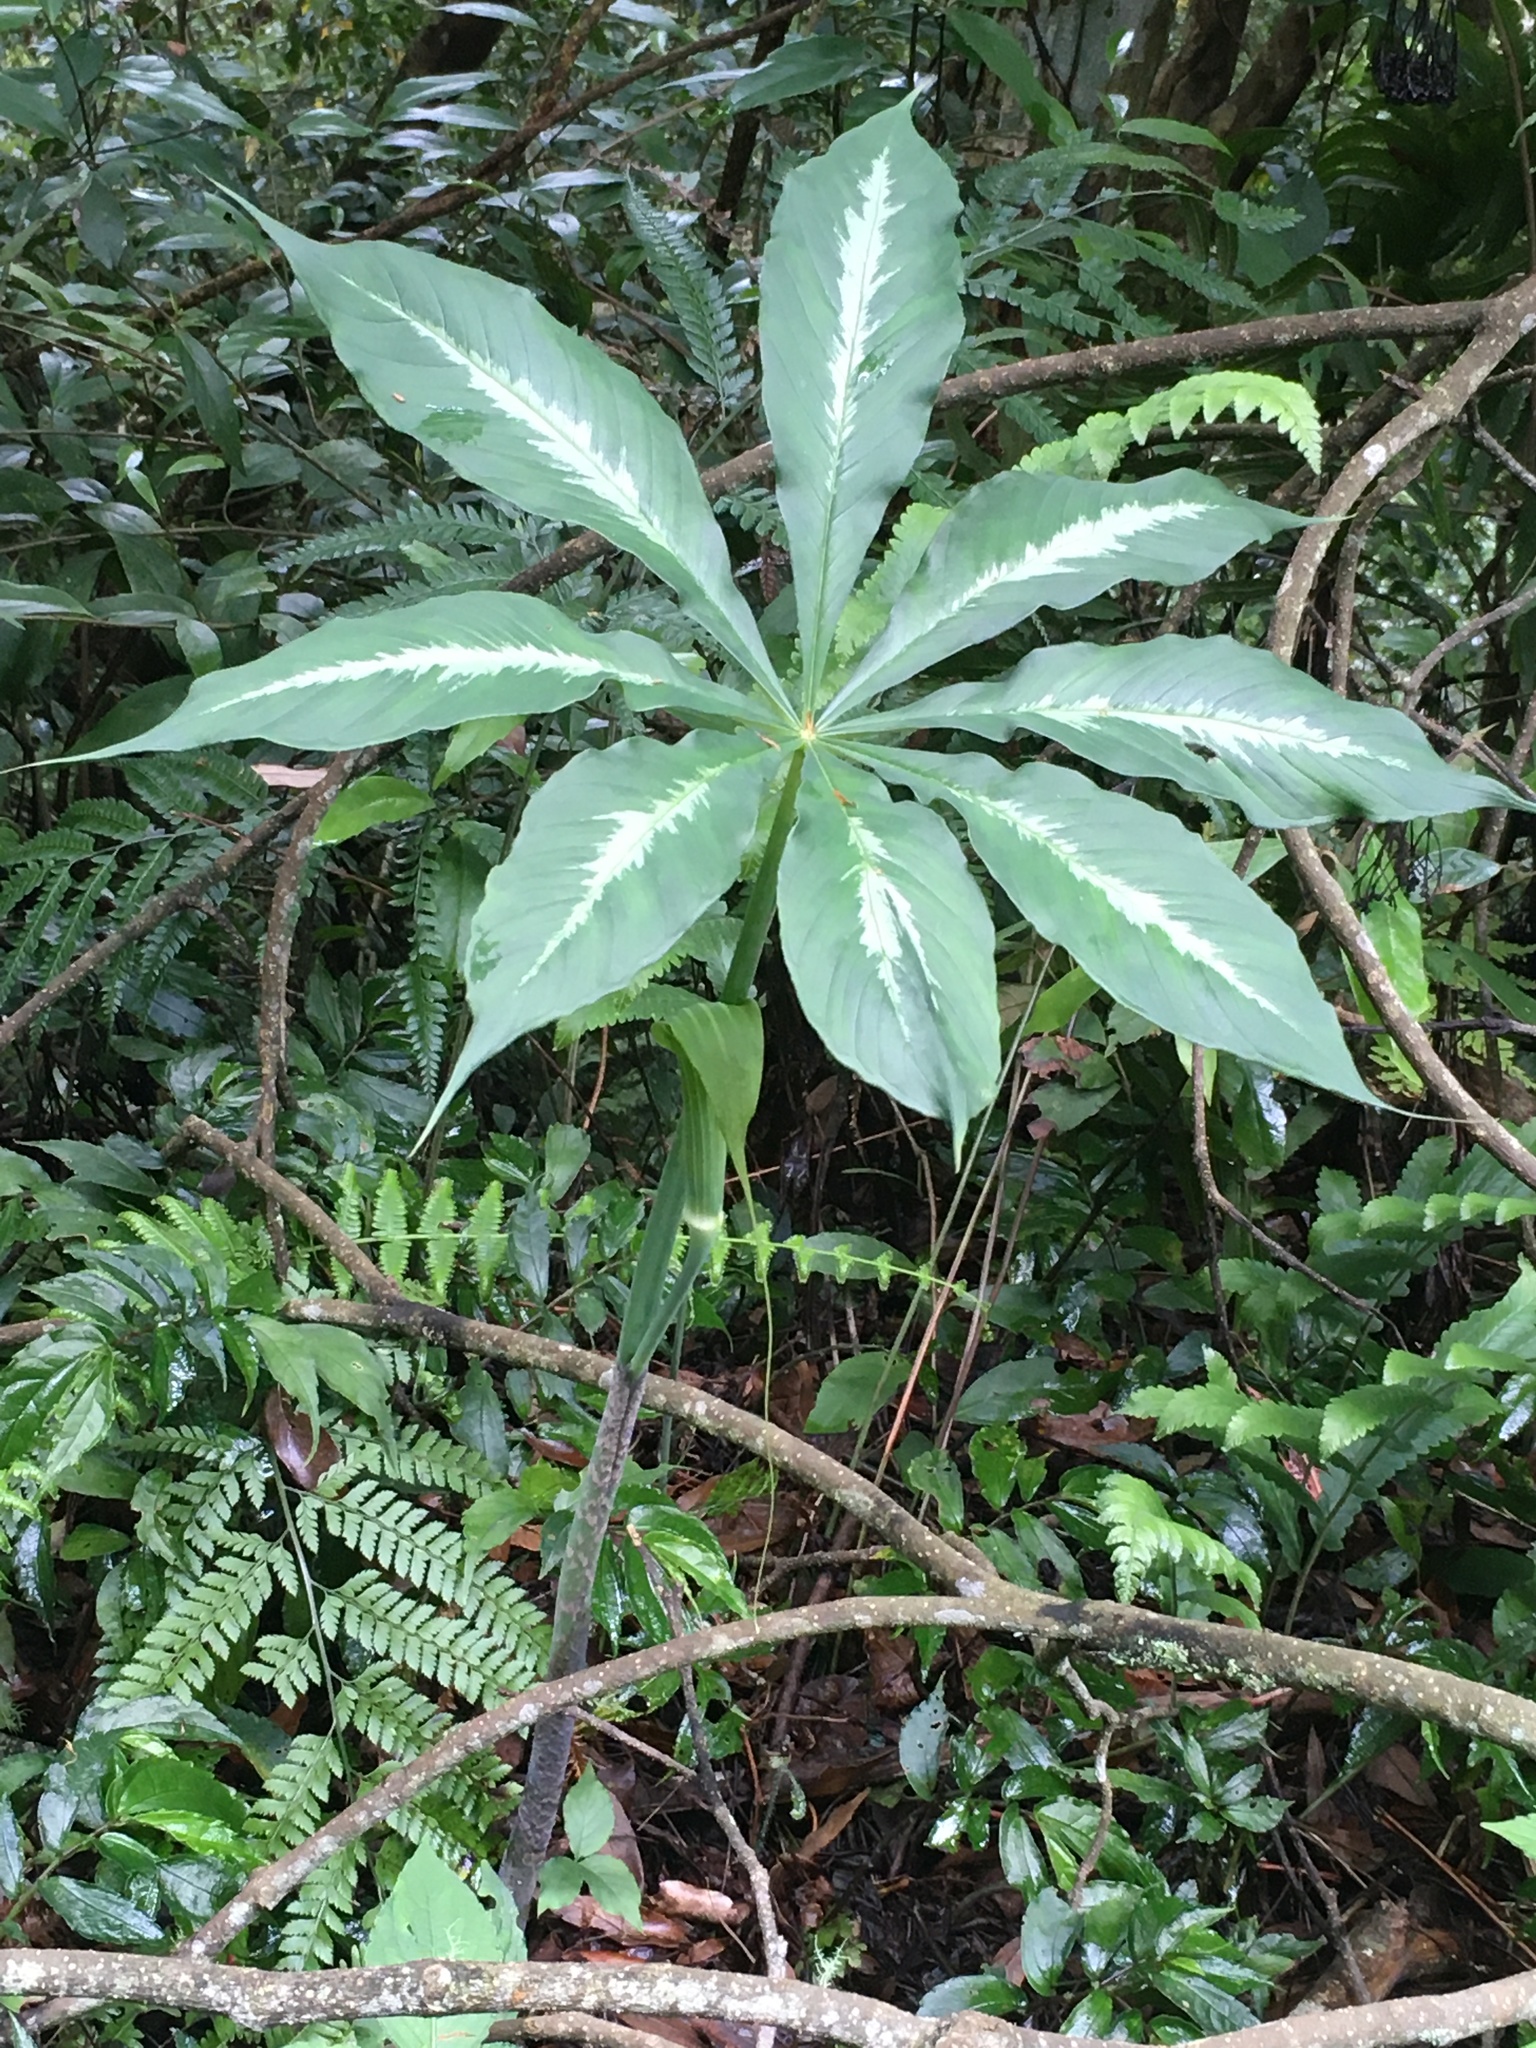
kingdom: Plantae
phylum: Tracheophyta
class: Liliopsida
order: Alismatales
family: Araceae
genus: Arisaema
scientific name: Arisaema consanguineum
